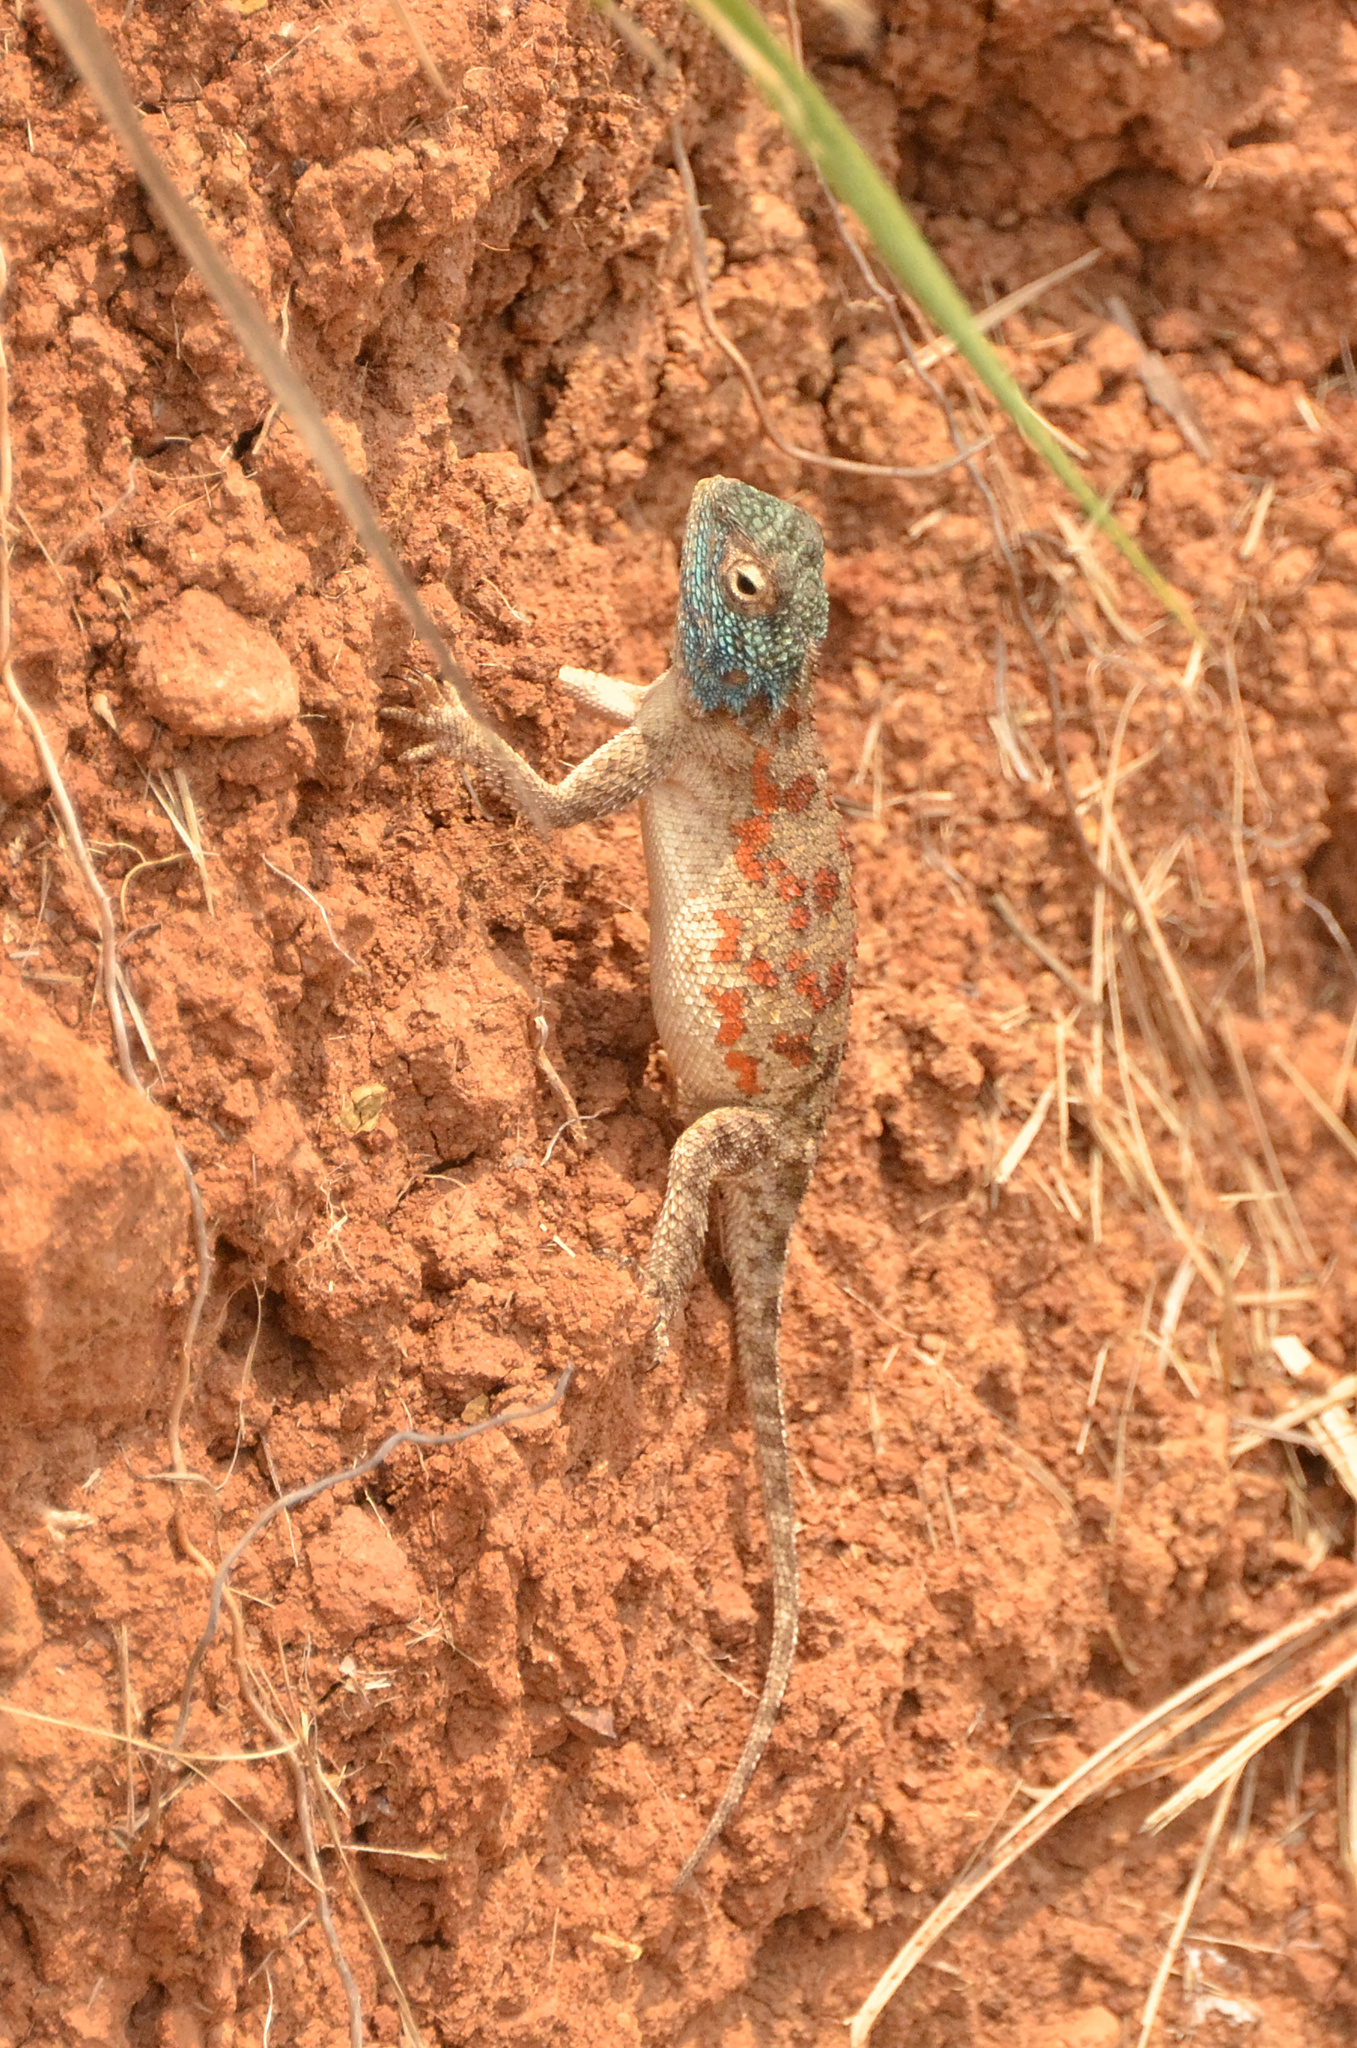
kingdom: Animalia
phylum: Chordata
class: Squamata
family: Agamidae
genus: Agama
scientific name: Agama aculeata
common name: Common ground agama
